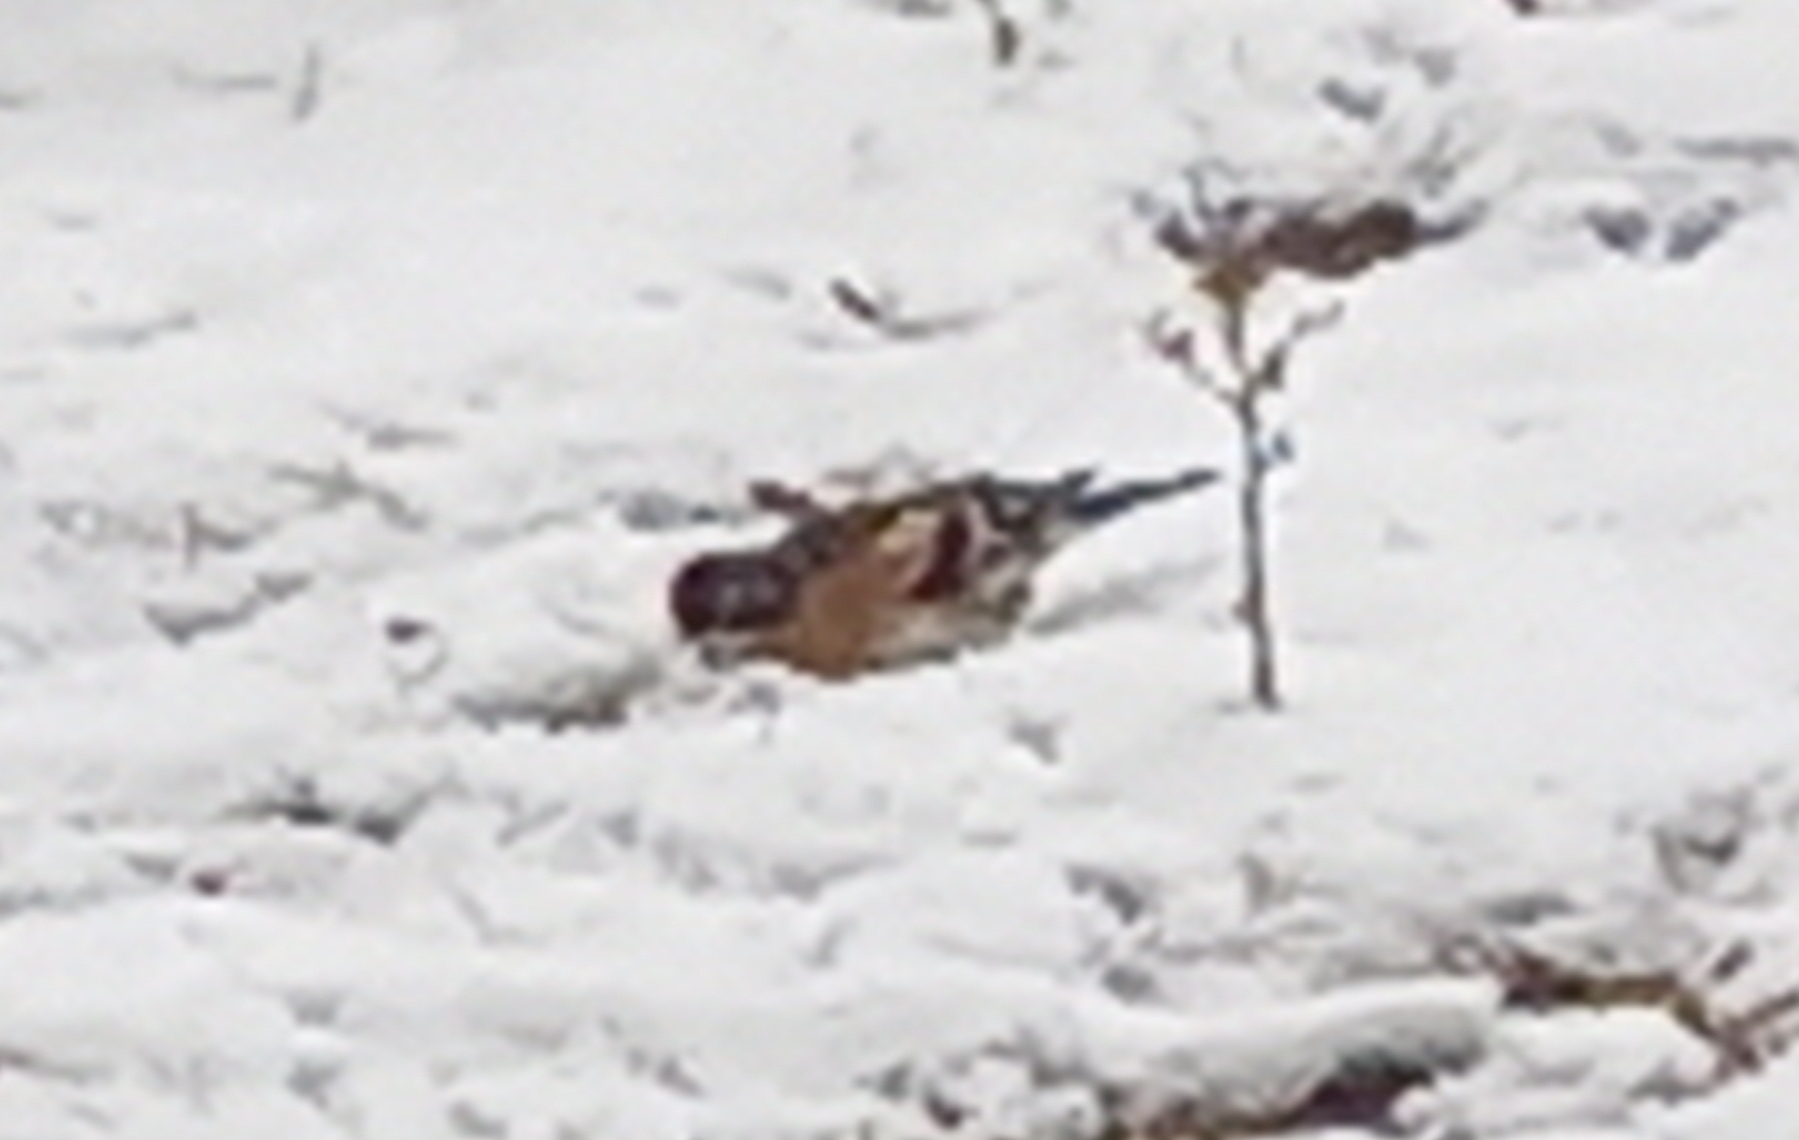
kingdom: Animalia
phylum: Chordata
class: Aves
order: Passeriformes
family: Fringillidae
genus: Fringilla
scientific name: Fringilla montifringilla
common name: Brambling
